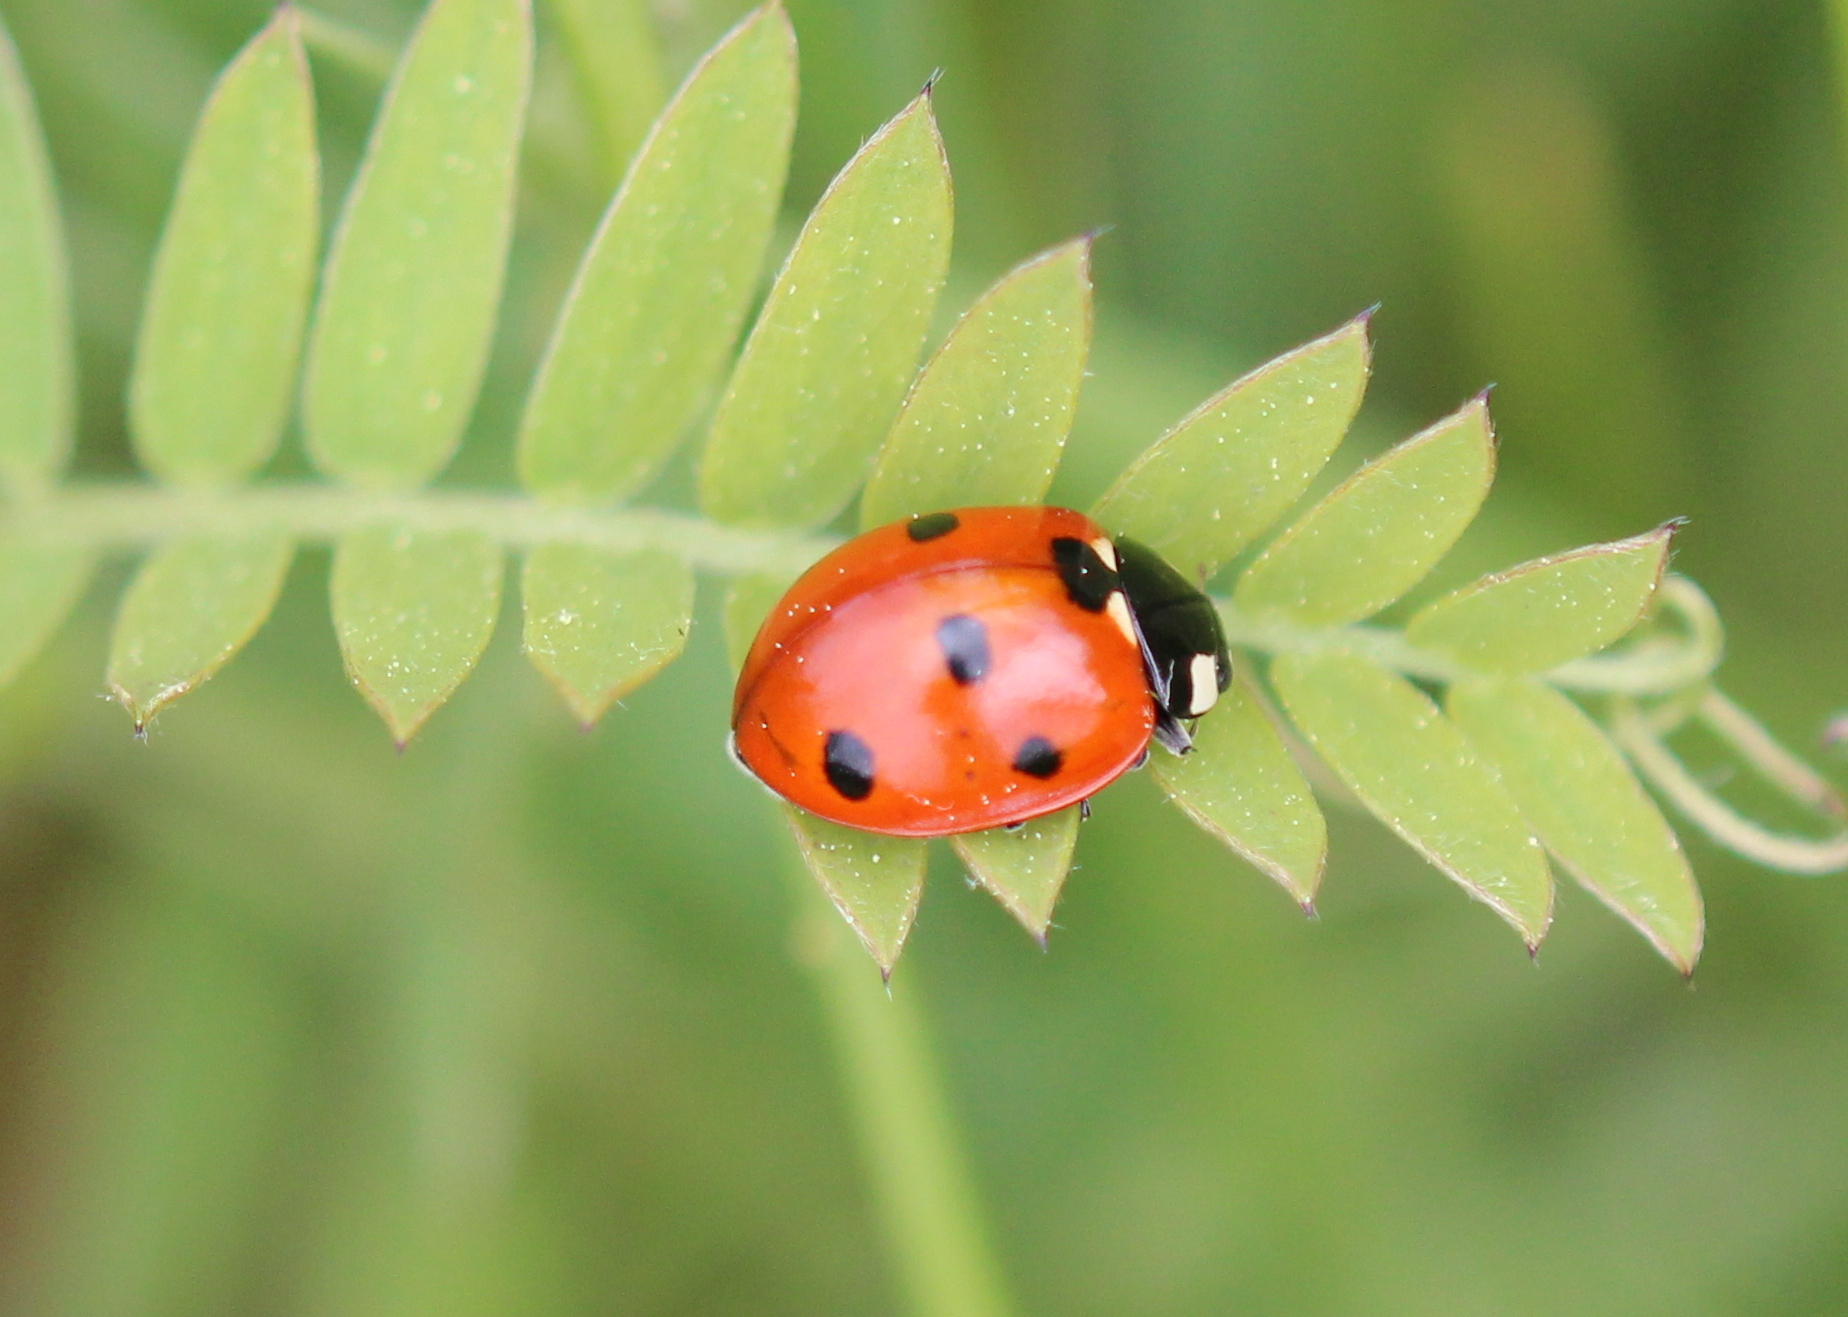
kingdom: Animalia
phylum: Arthropoda
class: Insecta
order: Coleoptera
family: Coccinellidae
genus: Coccinella
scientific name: Coccinella septempunctata
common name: Sevenspotted lady beetle
